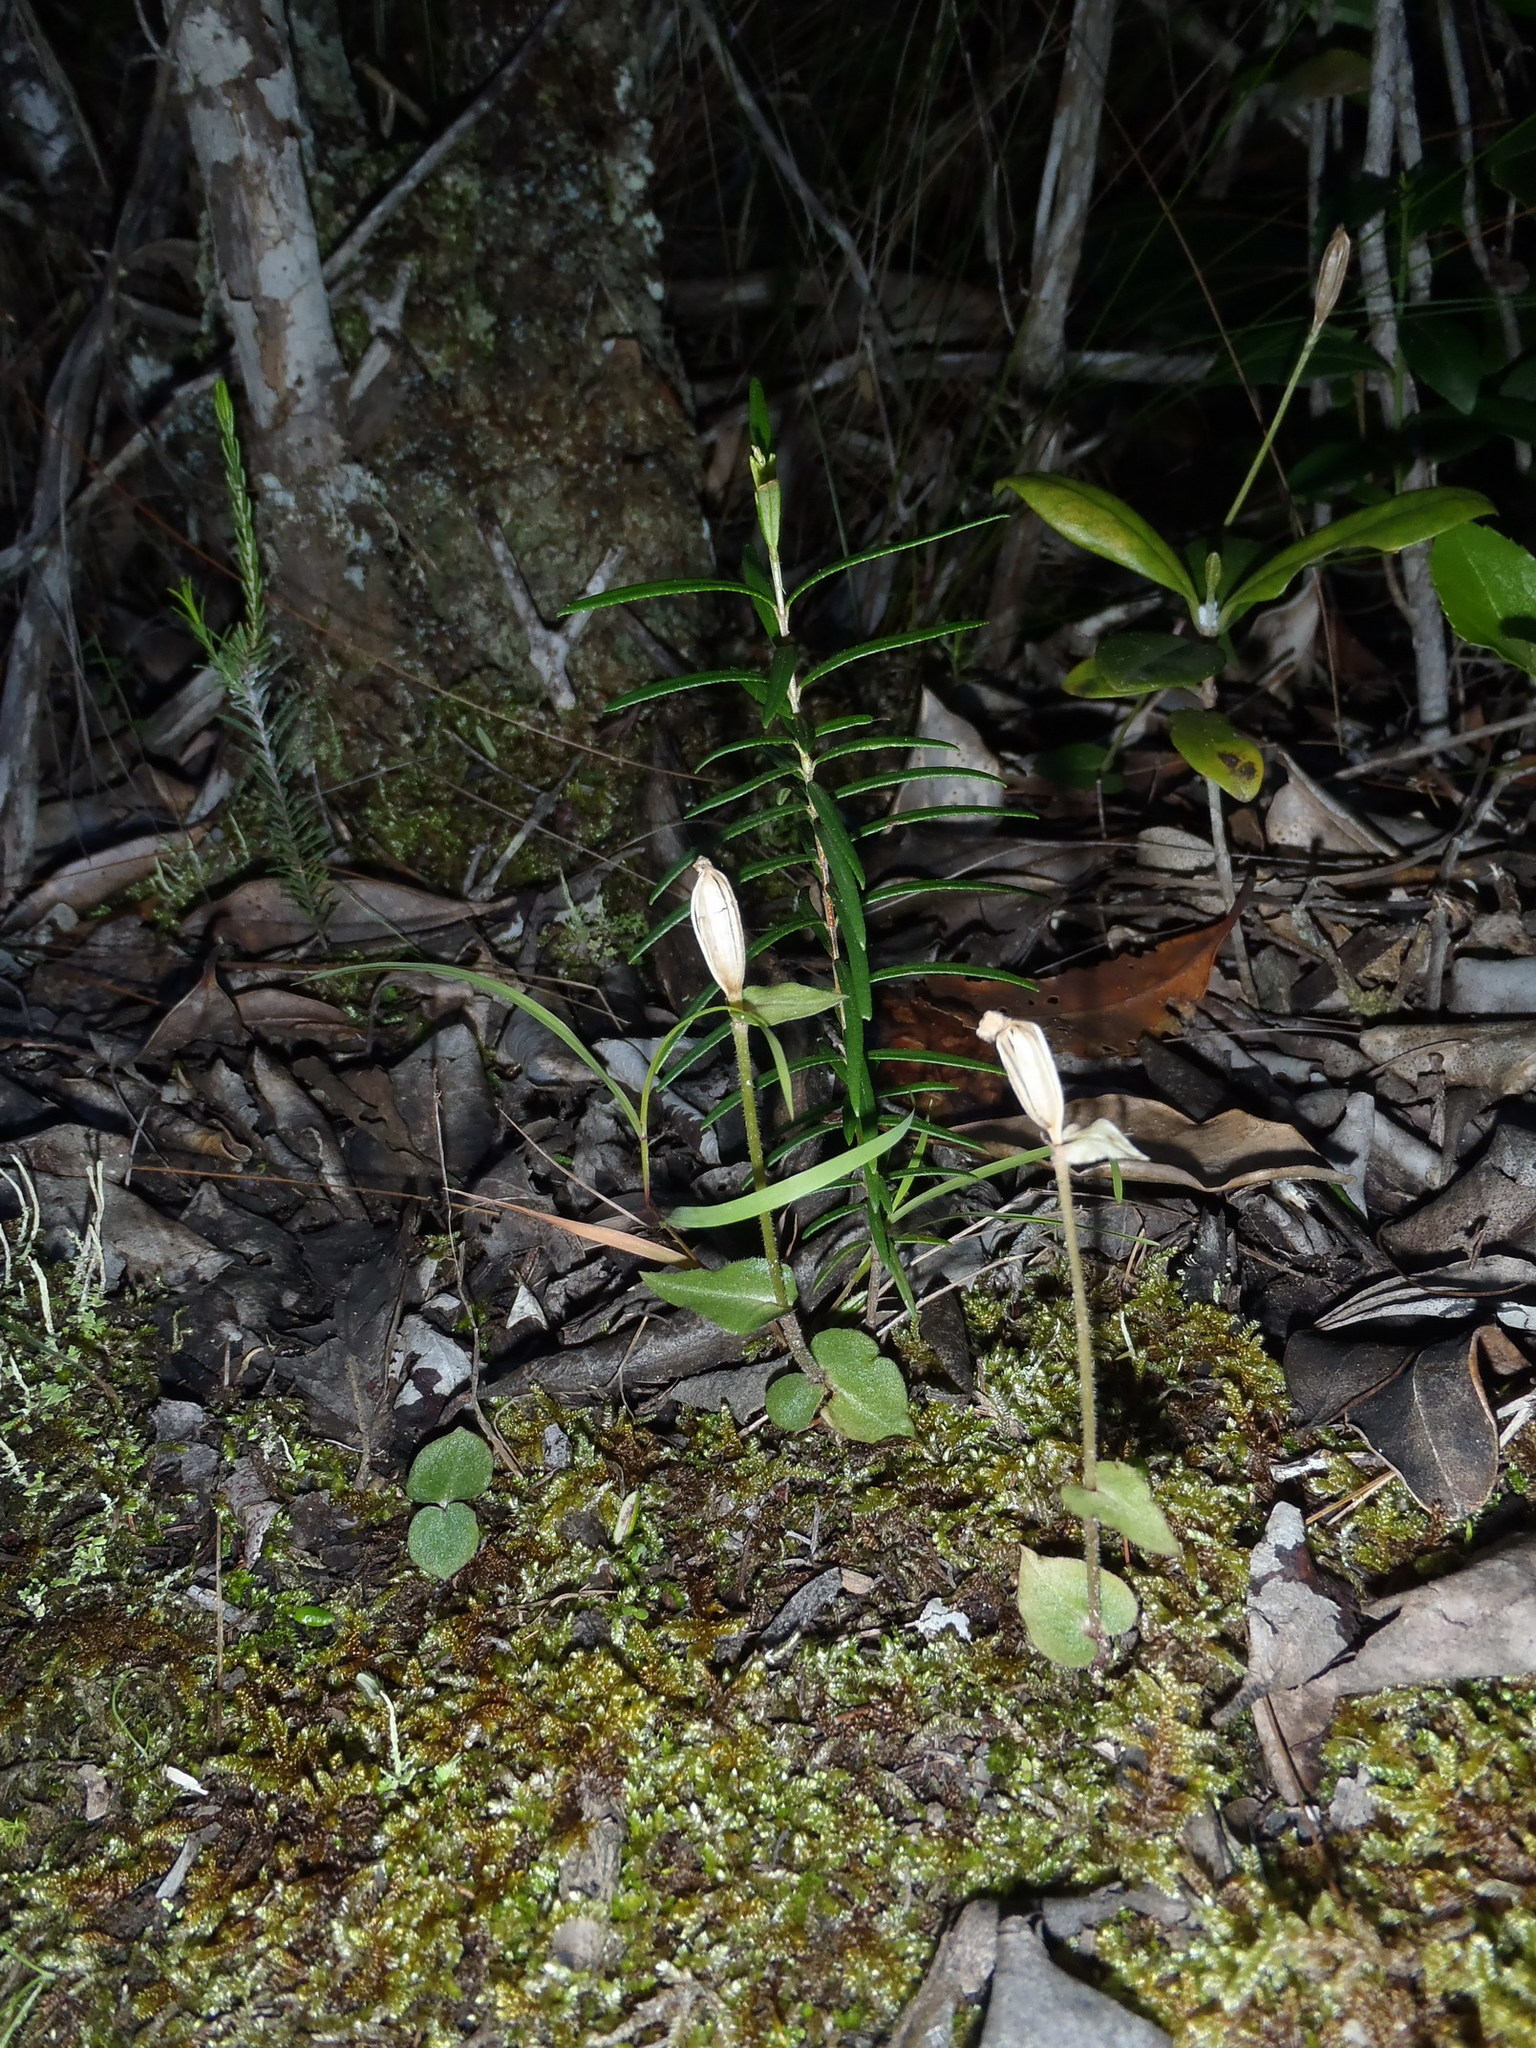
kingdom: Plantae
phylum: Tracheophyta
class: Liliopsida
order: Asparagales
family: Orchidaceae
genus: Disperis
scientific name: Disperis macowanii
